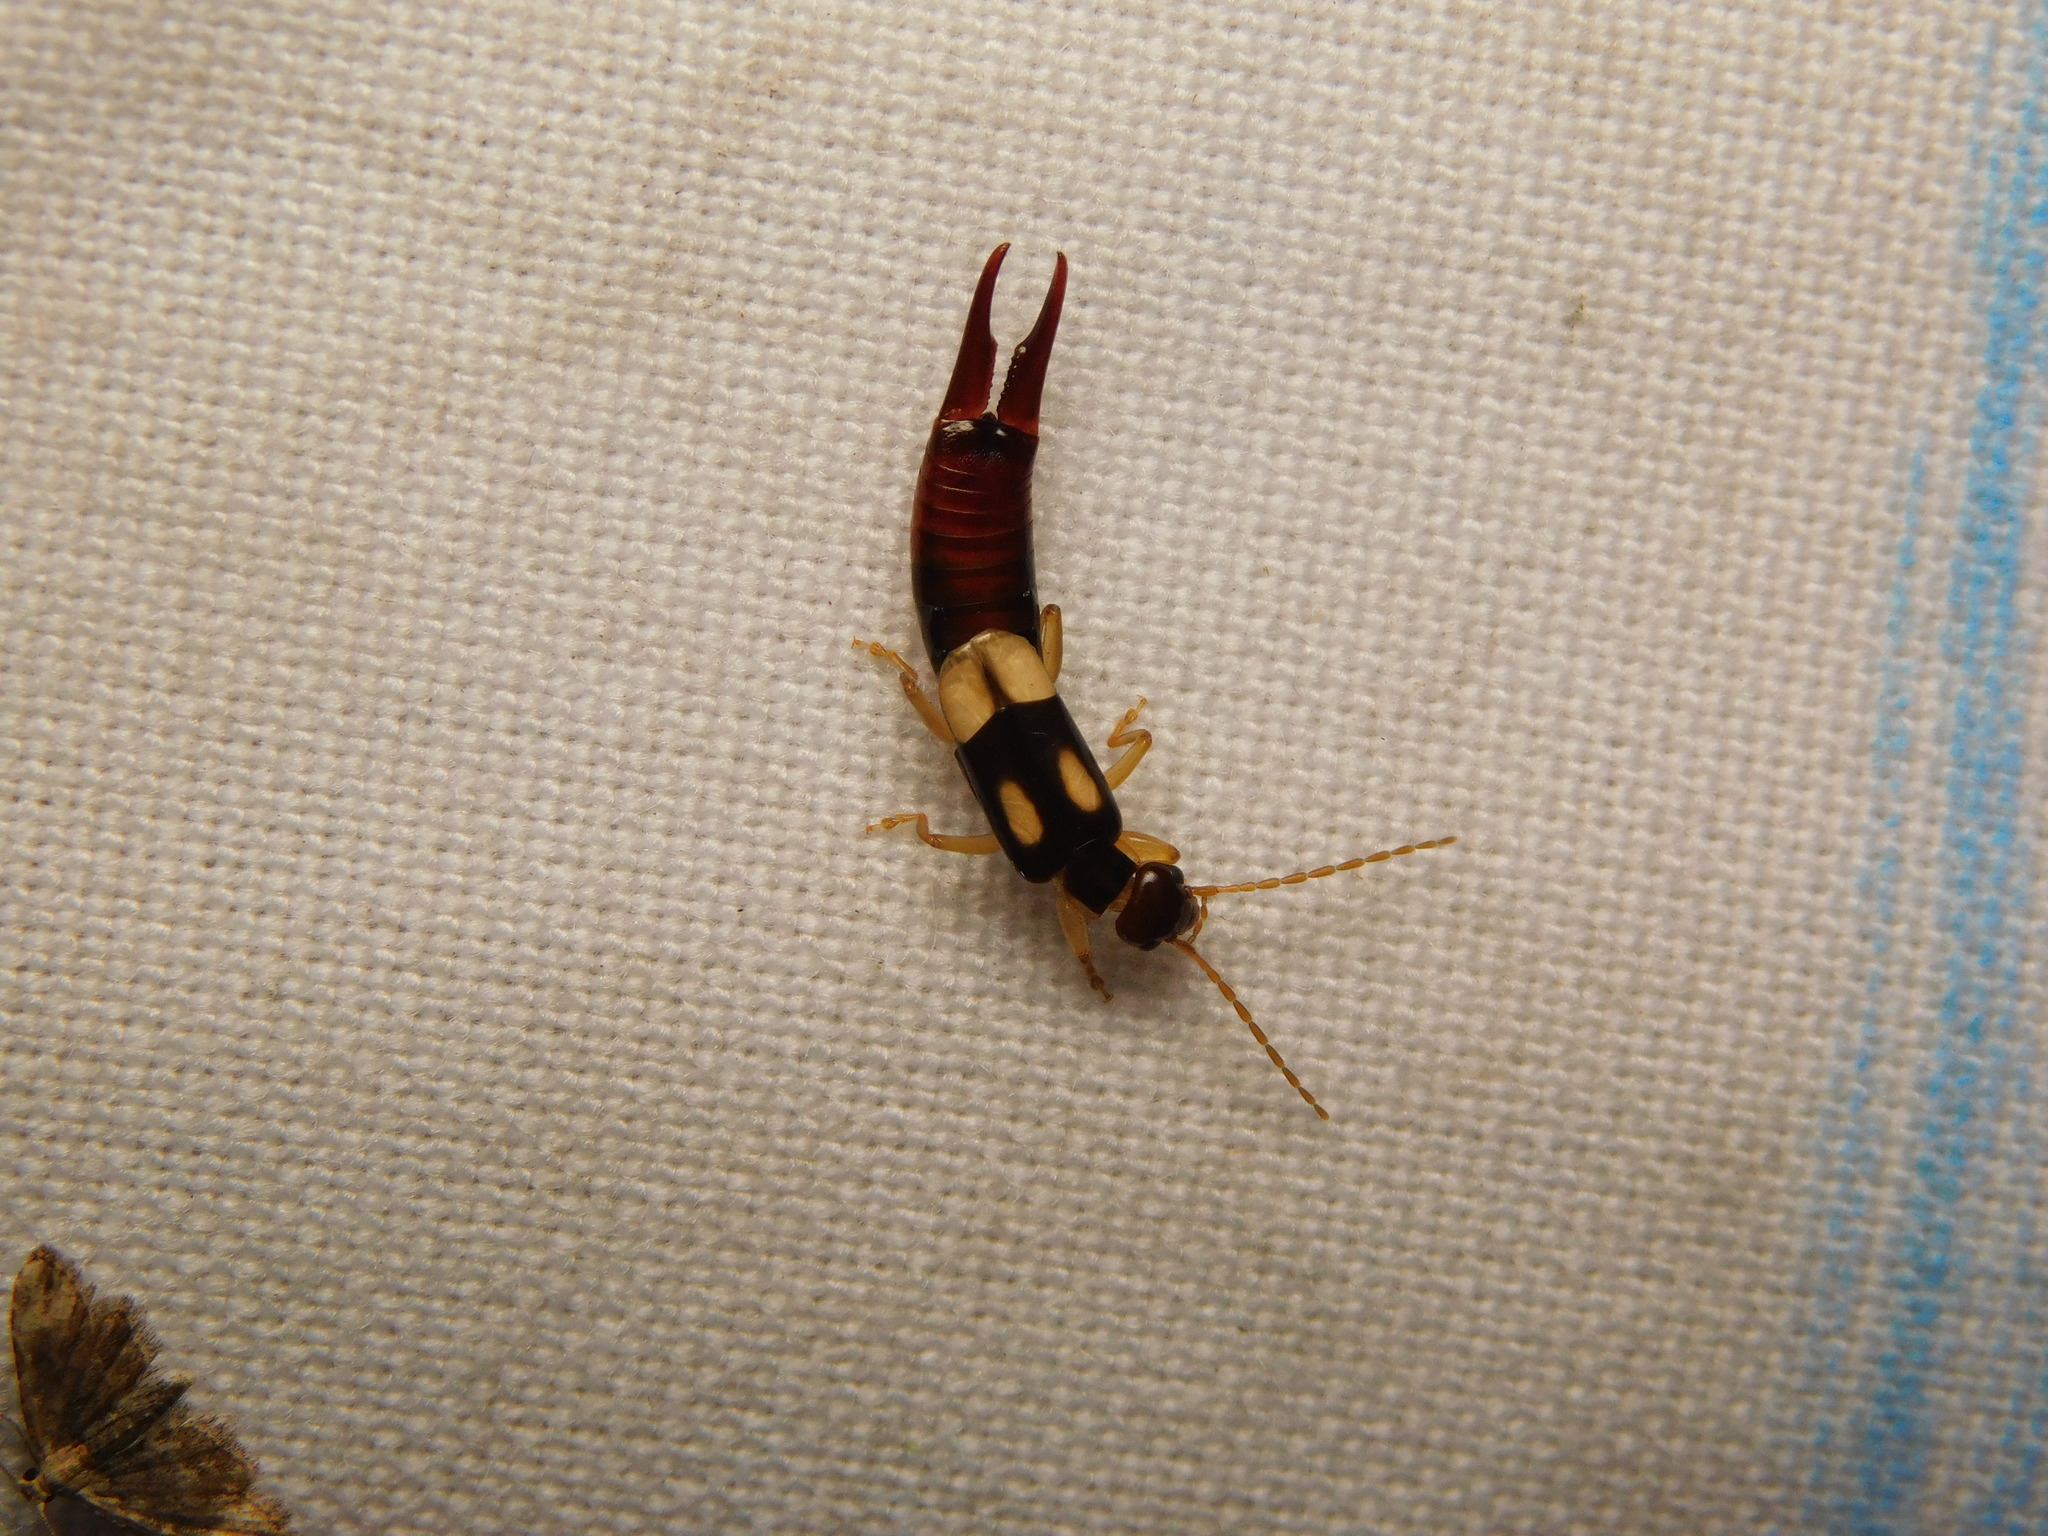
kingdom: Animalia
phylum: Arthropoda
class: Insecta
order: Dermaptera
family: Forficulidae
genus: Forficula
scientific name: Forficula greeni
